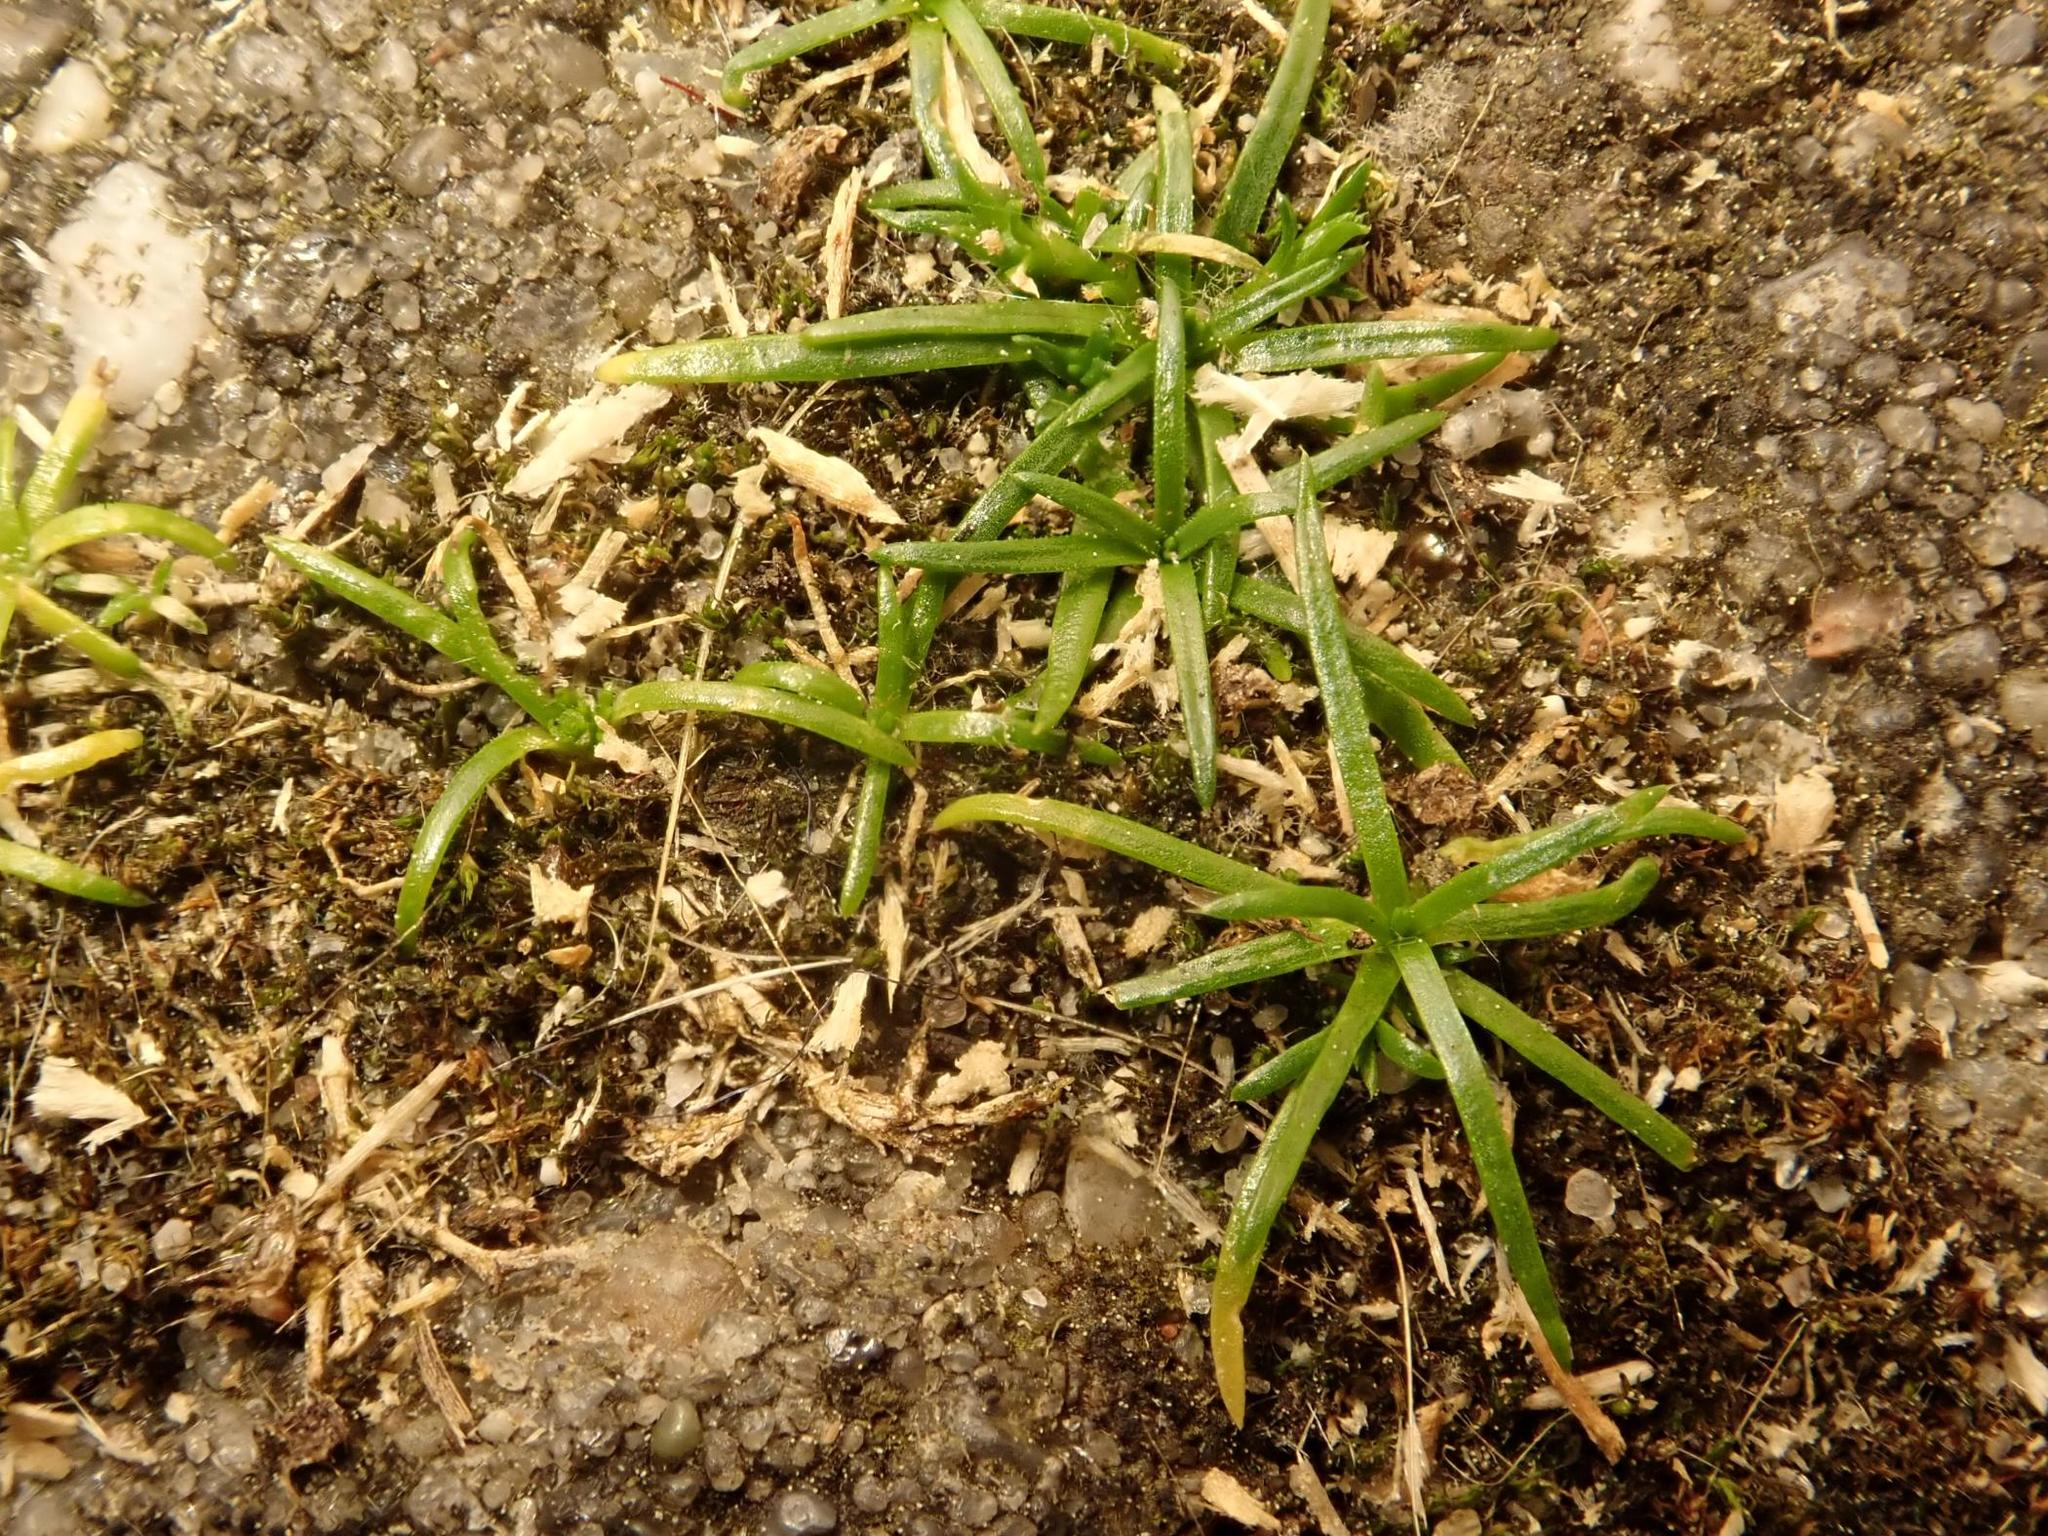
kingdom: Plantae
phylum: Tracheophyta
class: Magnoliopsida
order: Caryophyllales
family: Caryophyllaceae
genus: Sagina
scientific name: Sagina procumbens
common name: Procumbent pearlwort
